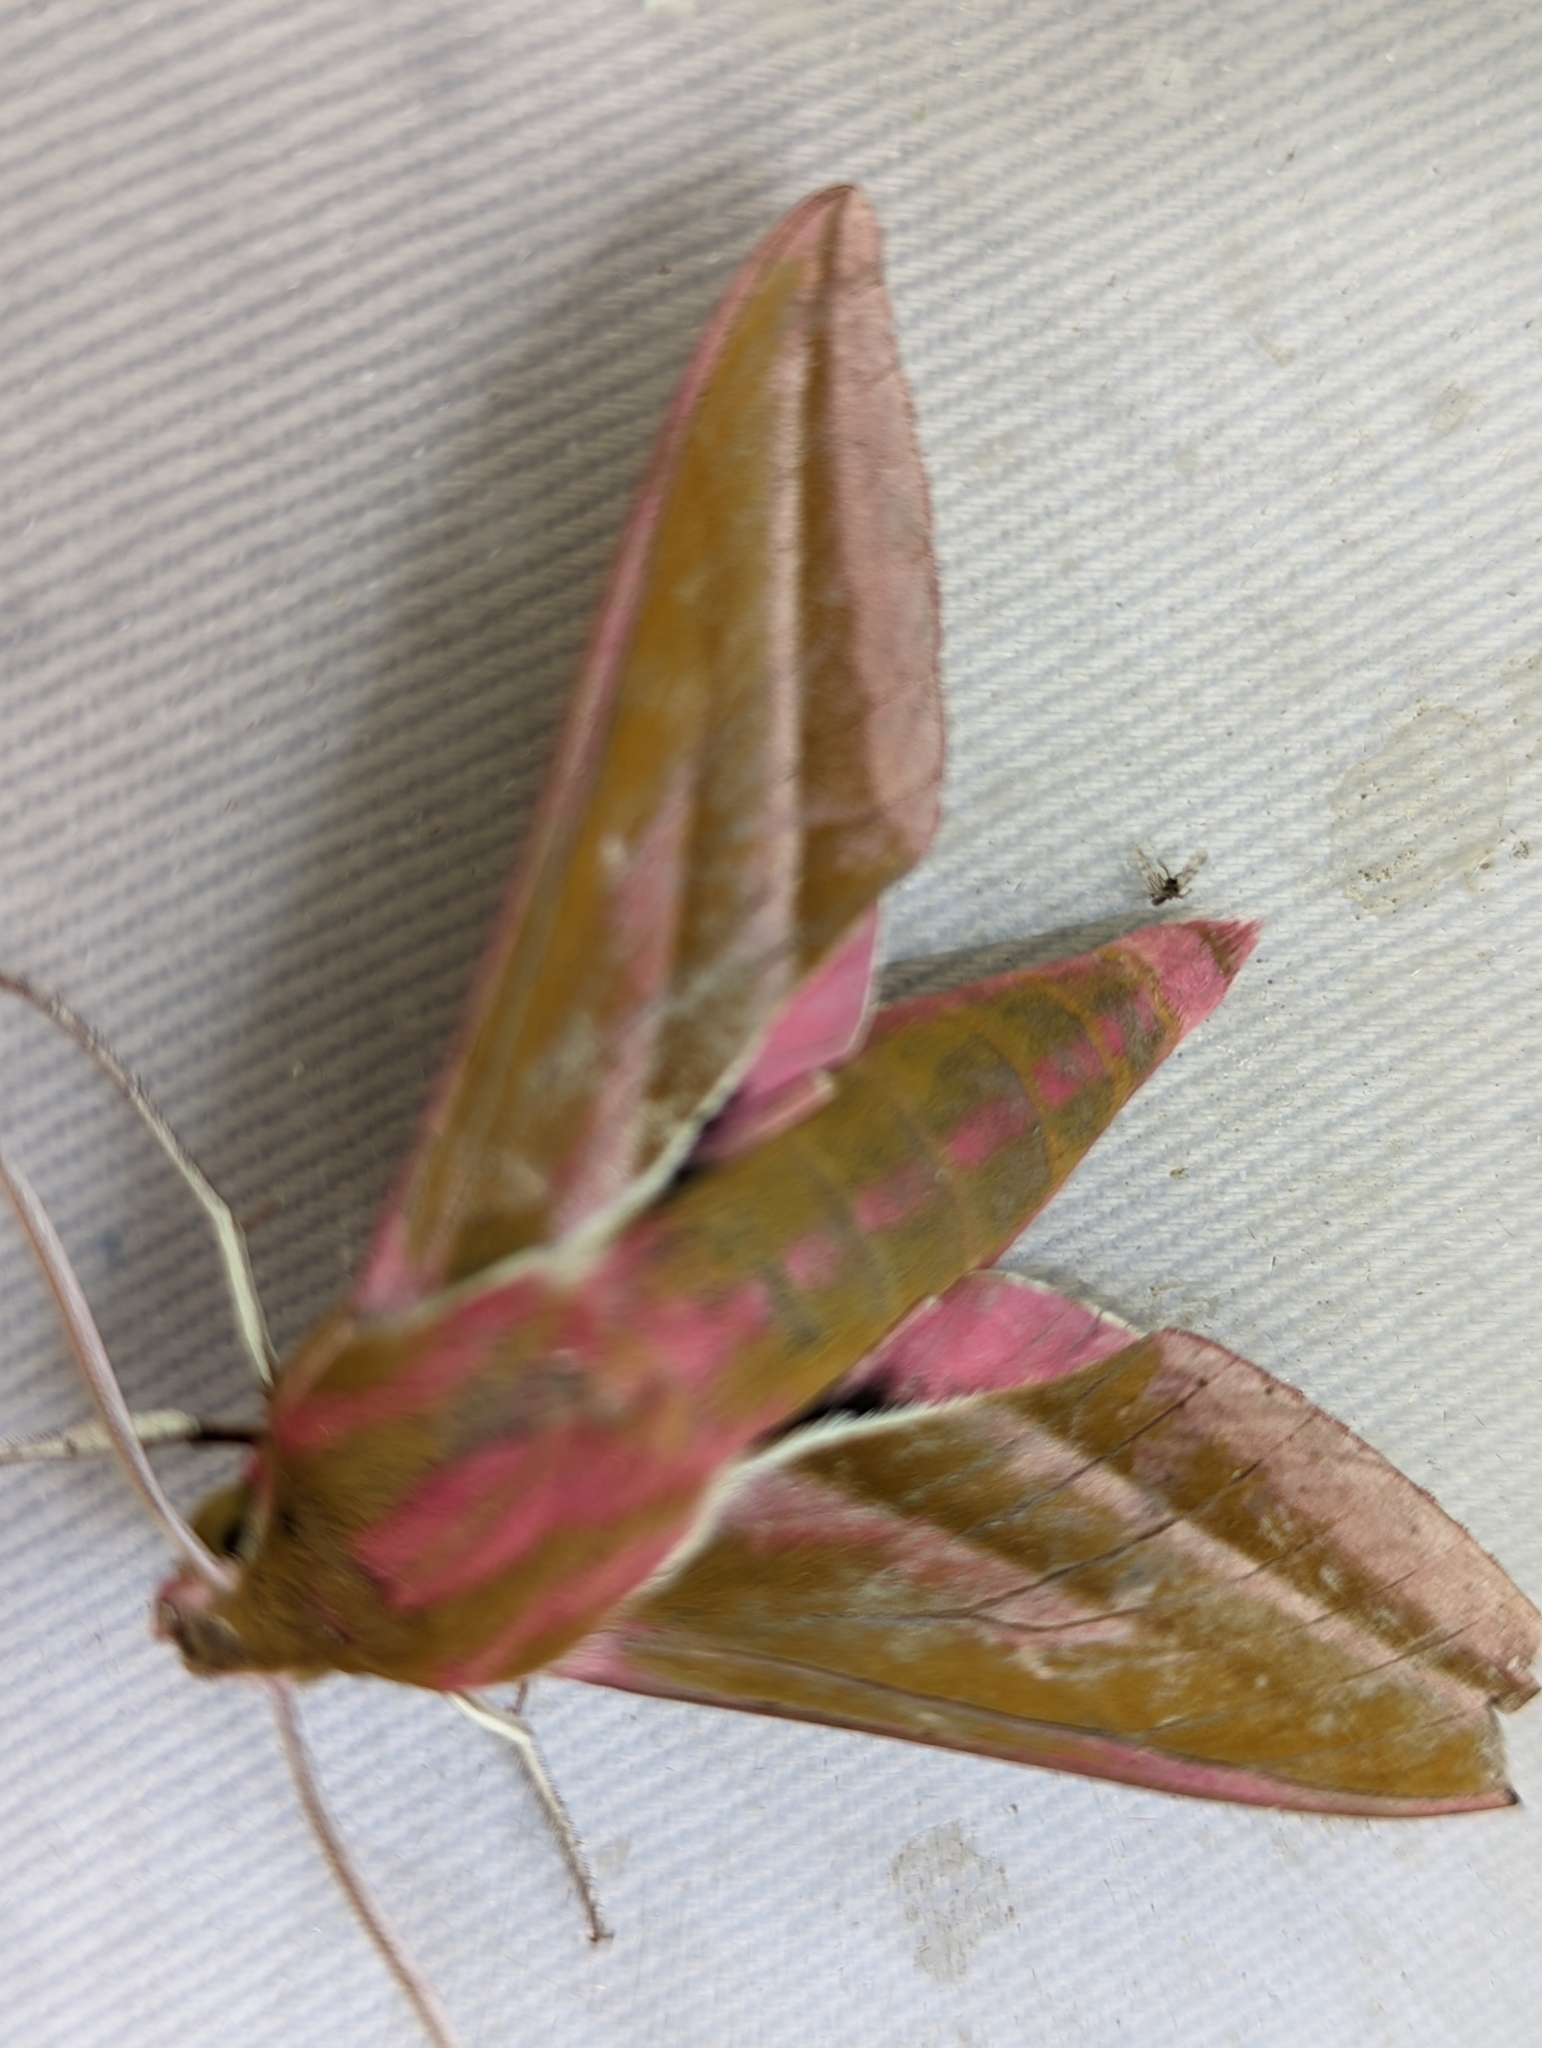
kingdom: Animalia
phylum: Arthropoda
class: Insecta
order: Lepidoptera
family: Sphingidae
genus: Deilephila
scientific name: Deilephila elpenor
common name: Elephant hawk-moth
